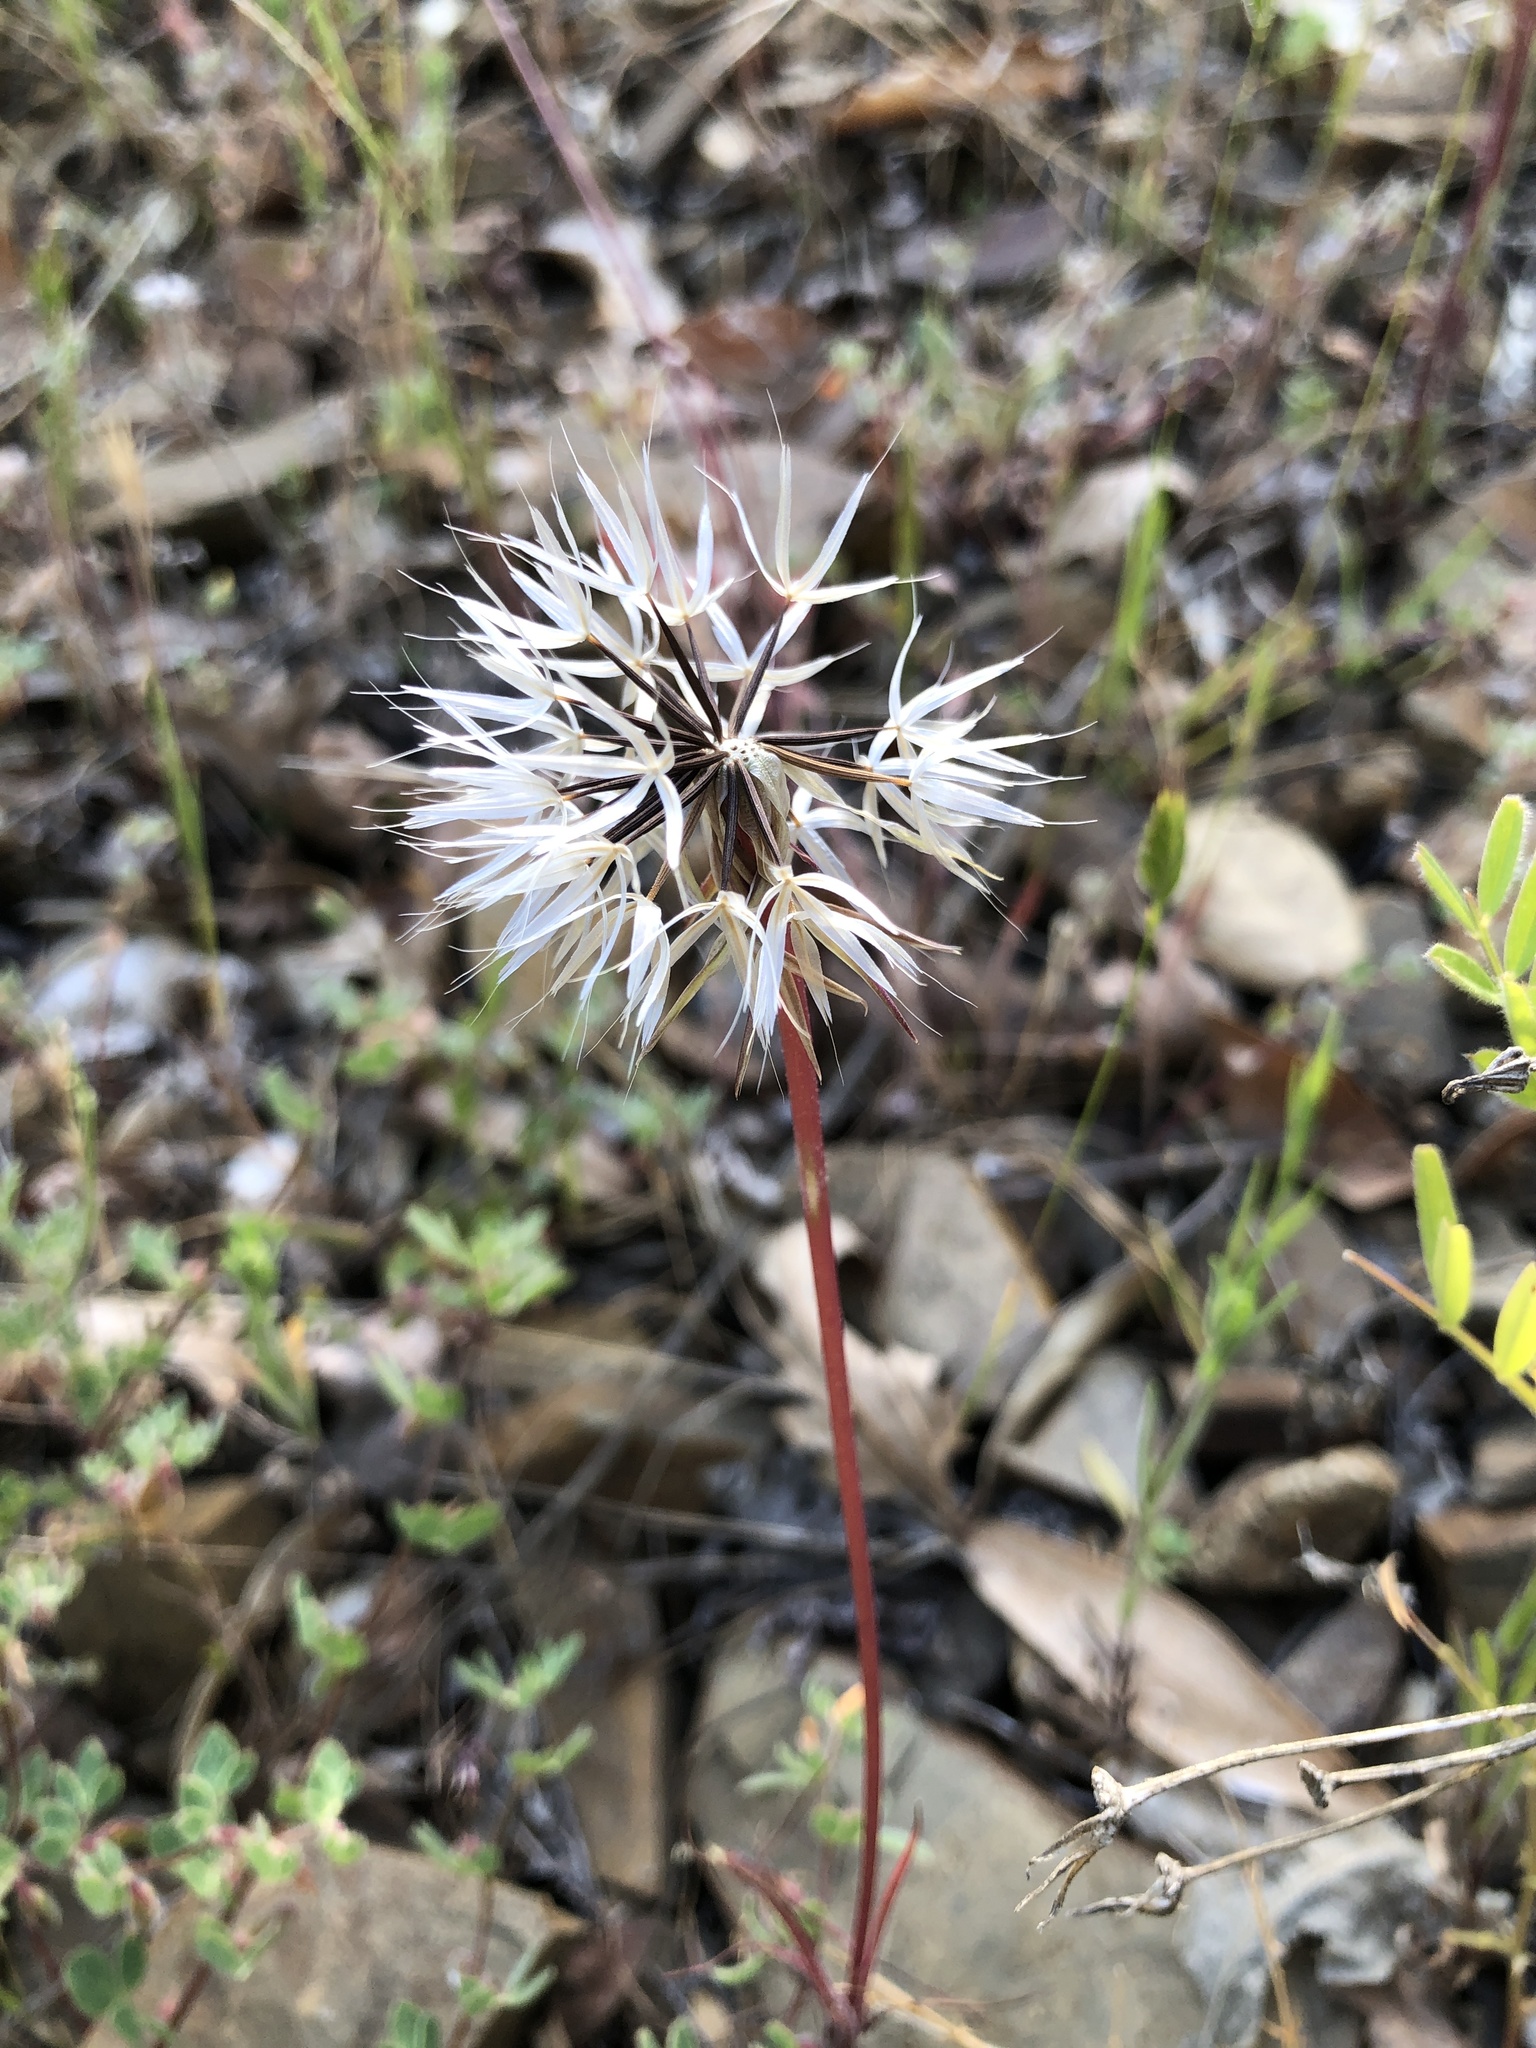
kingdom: Plantae
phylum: Tracheophyta
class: Magnoliopsida
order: Asterales
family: Asteraceae
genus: Microseris
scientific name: Microseris lindleyi
